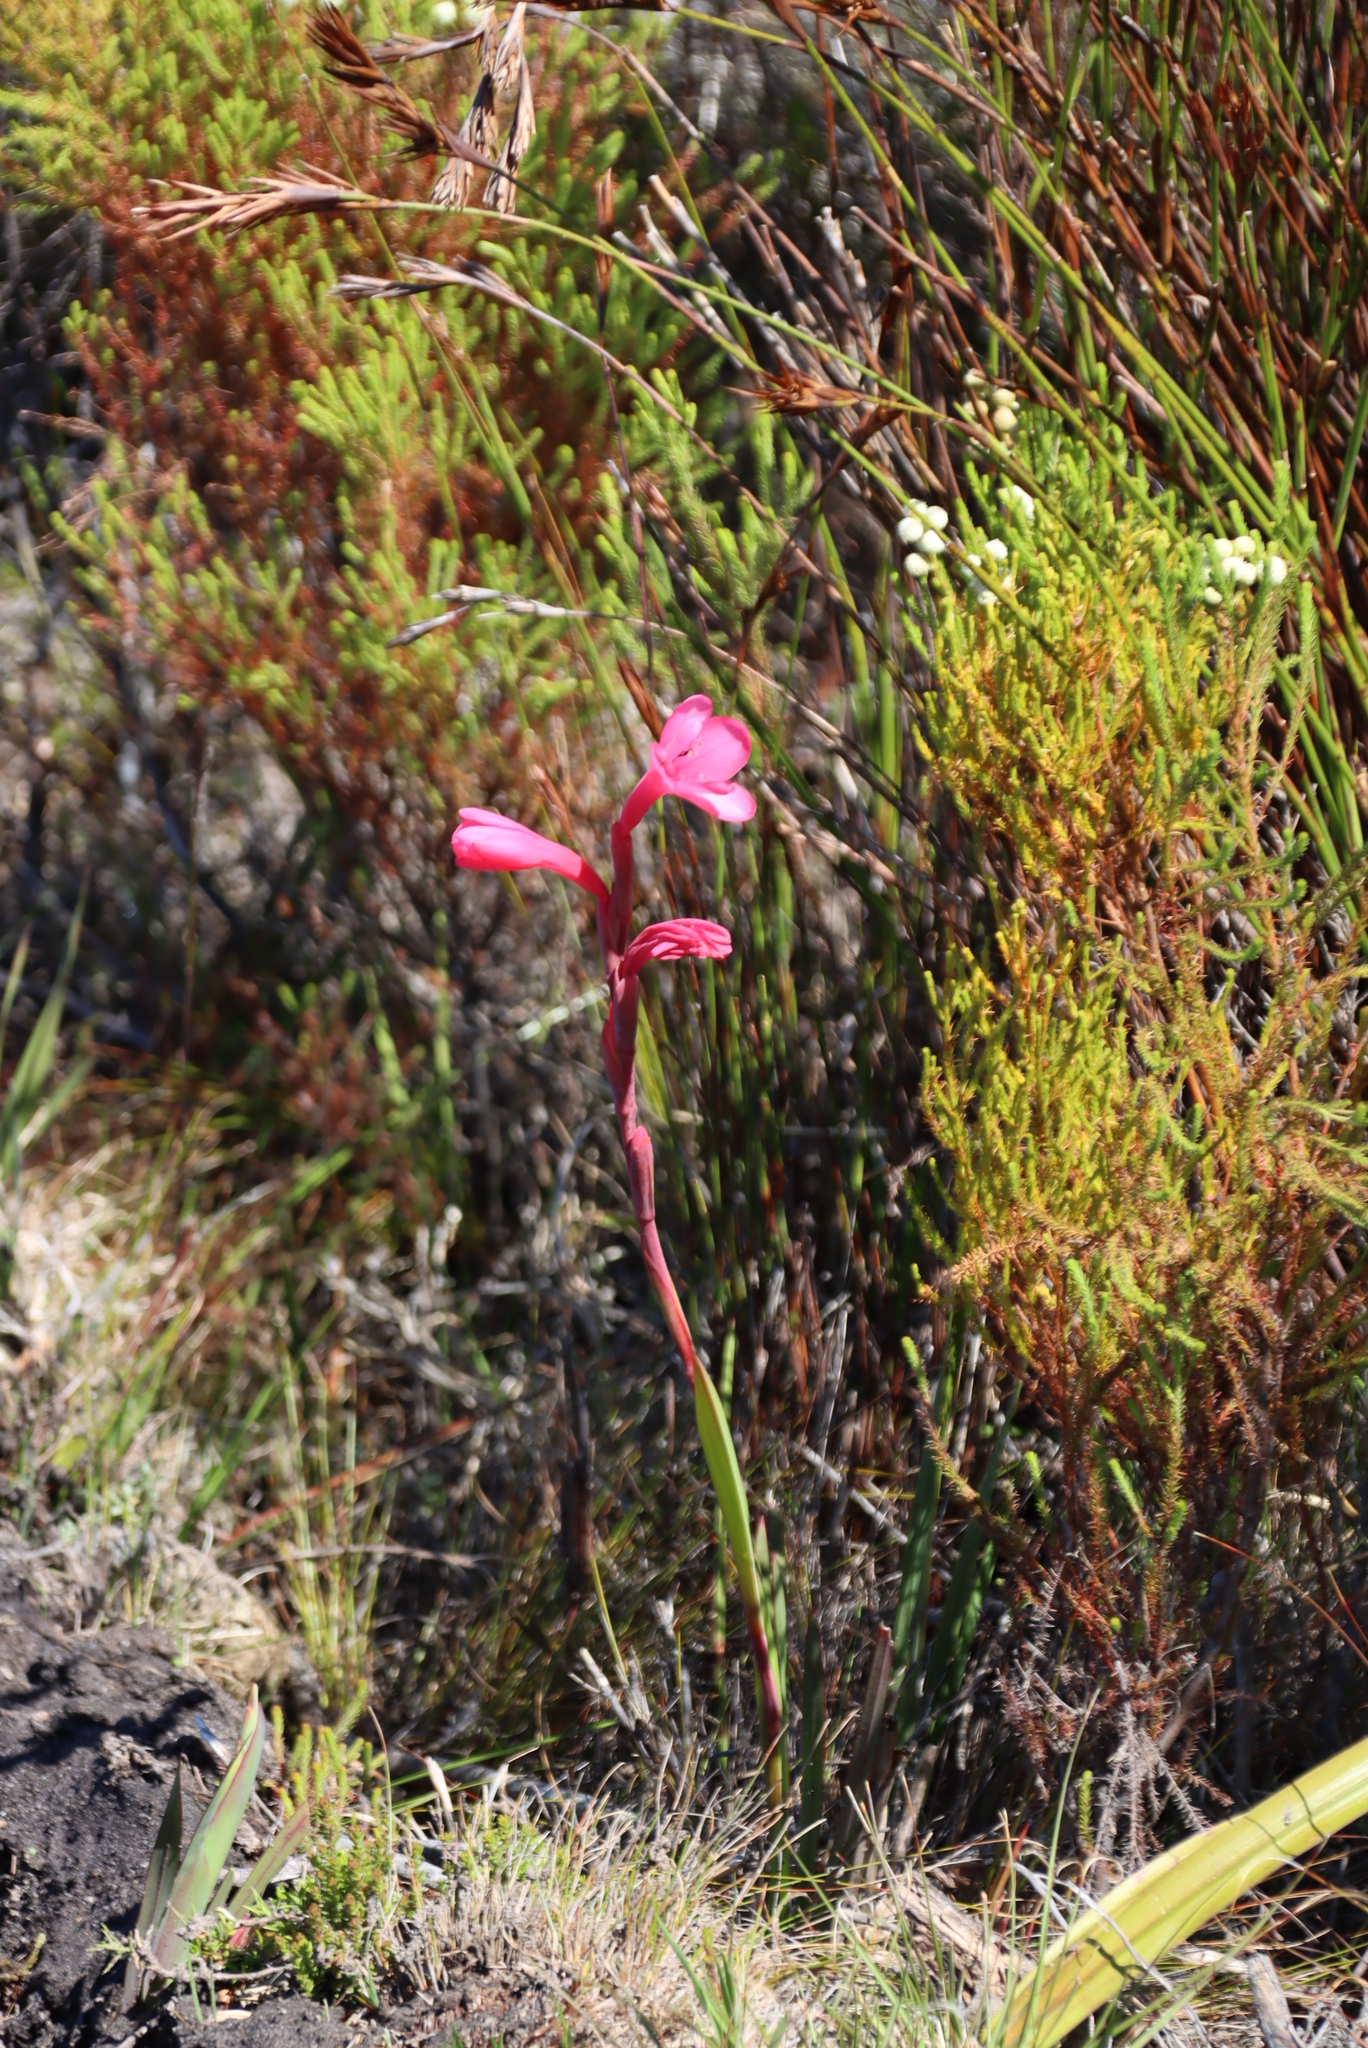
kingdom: Plantae
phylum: Tracheophyta
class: Liliopsida
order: Asparagales
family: Iridaceae
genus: Watsonia
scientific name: Watsonia coccinea
